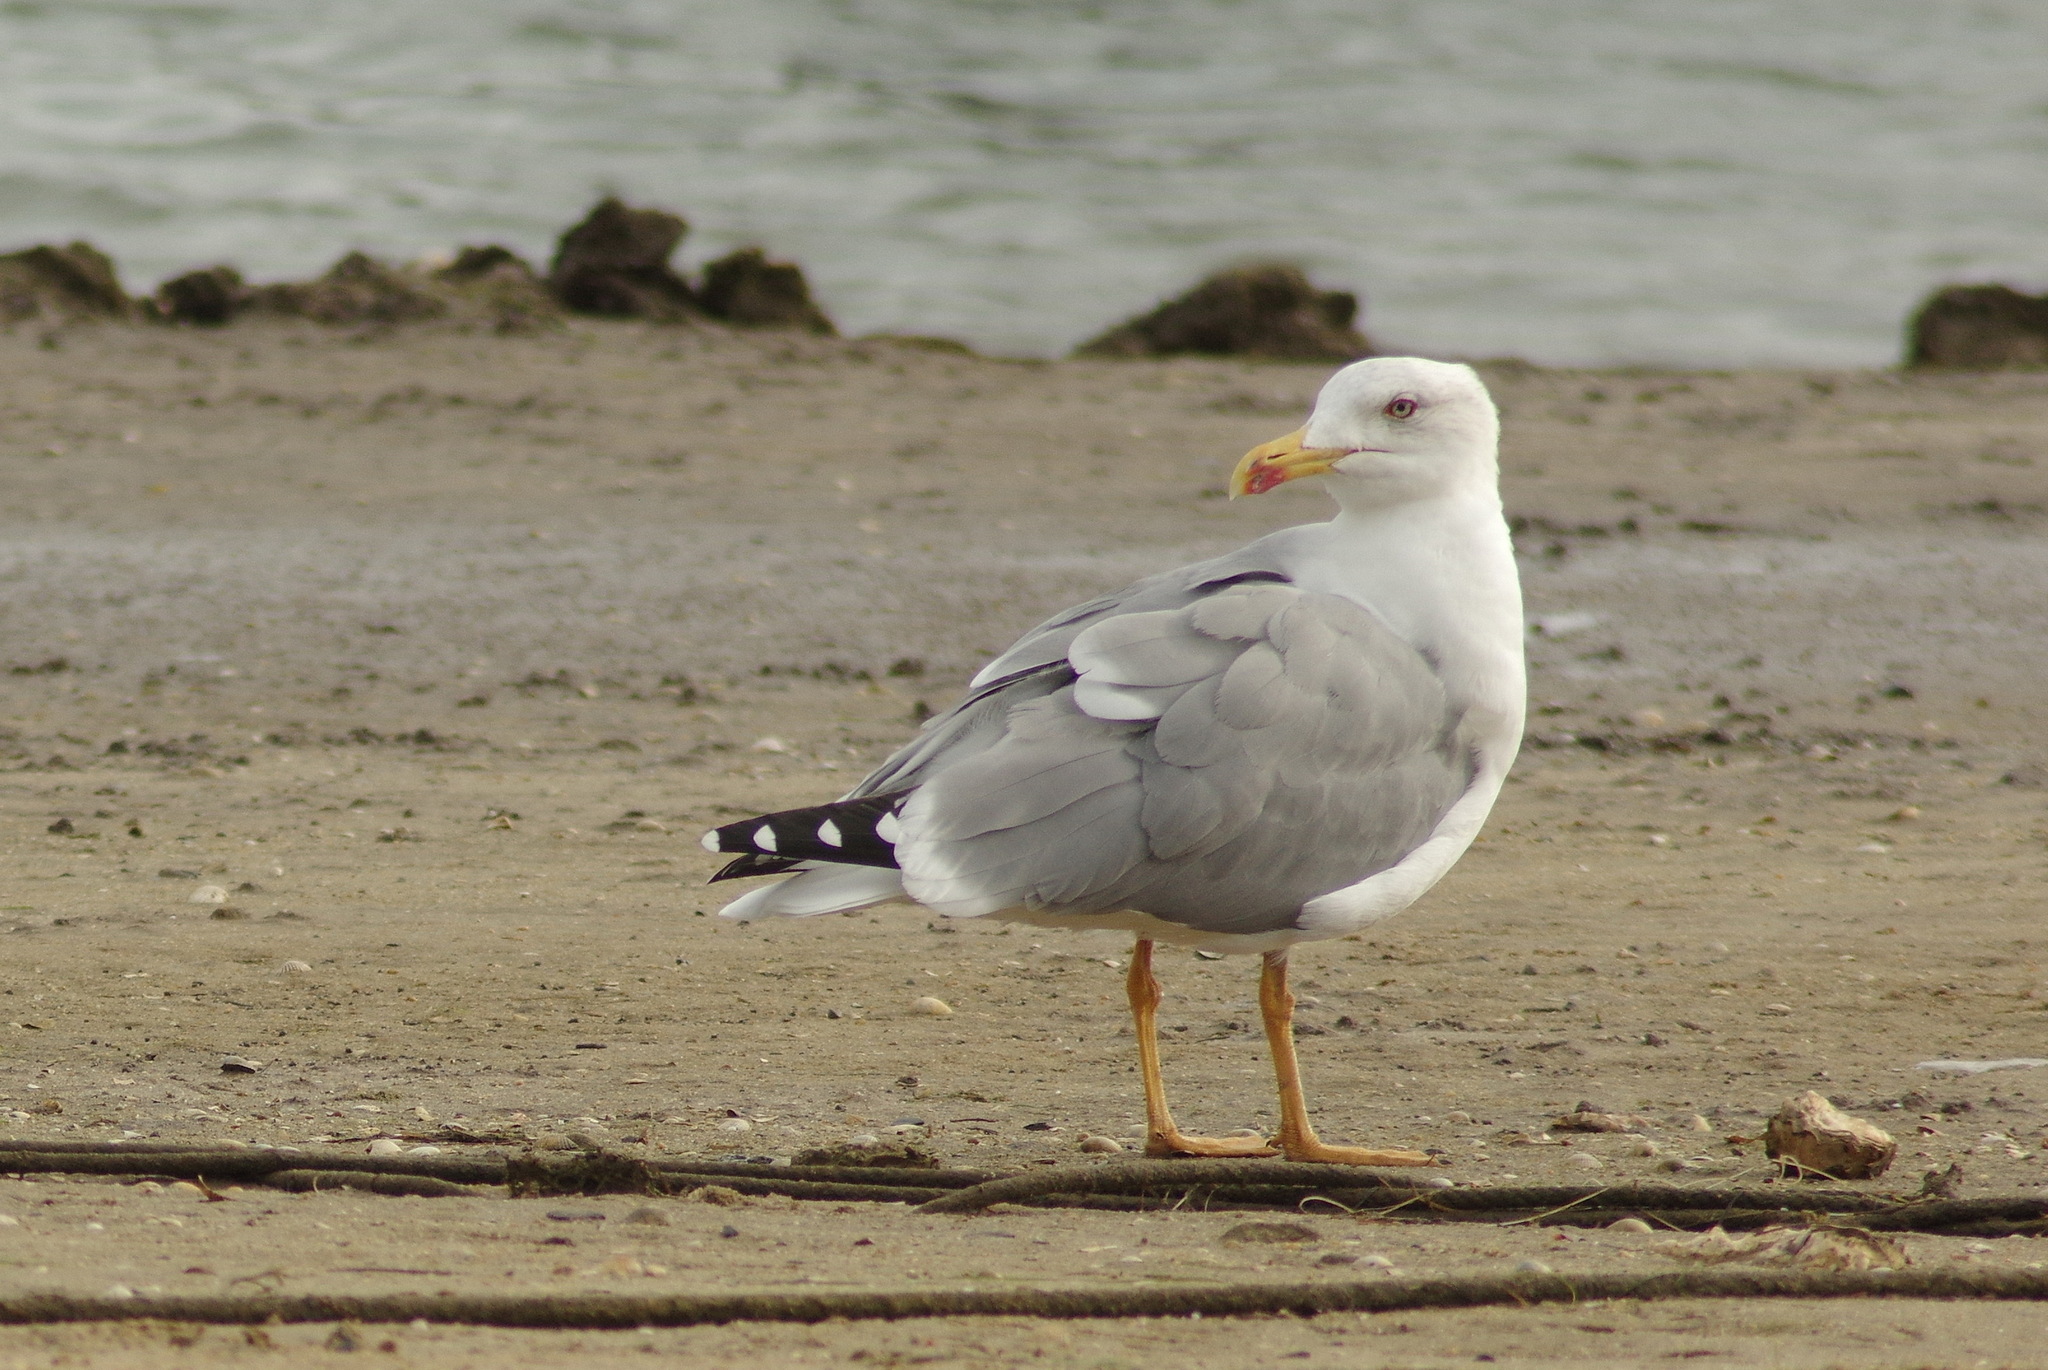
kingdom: Animalia
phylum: Chordata
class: Aves
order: Charadriiformes
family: Laridae
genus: Larus
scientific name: Larus michahellis
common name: Yellow-legged gull
